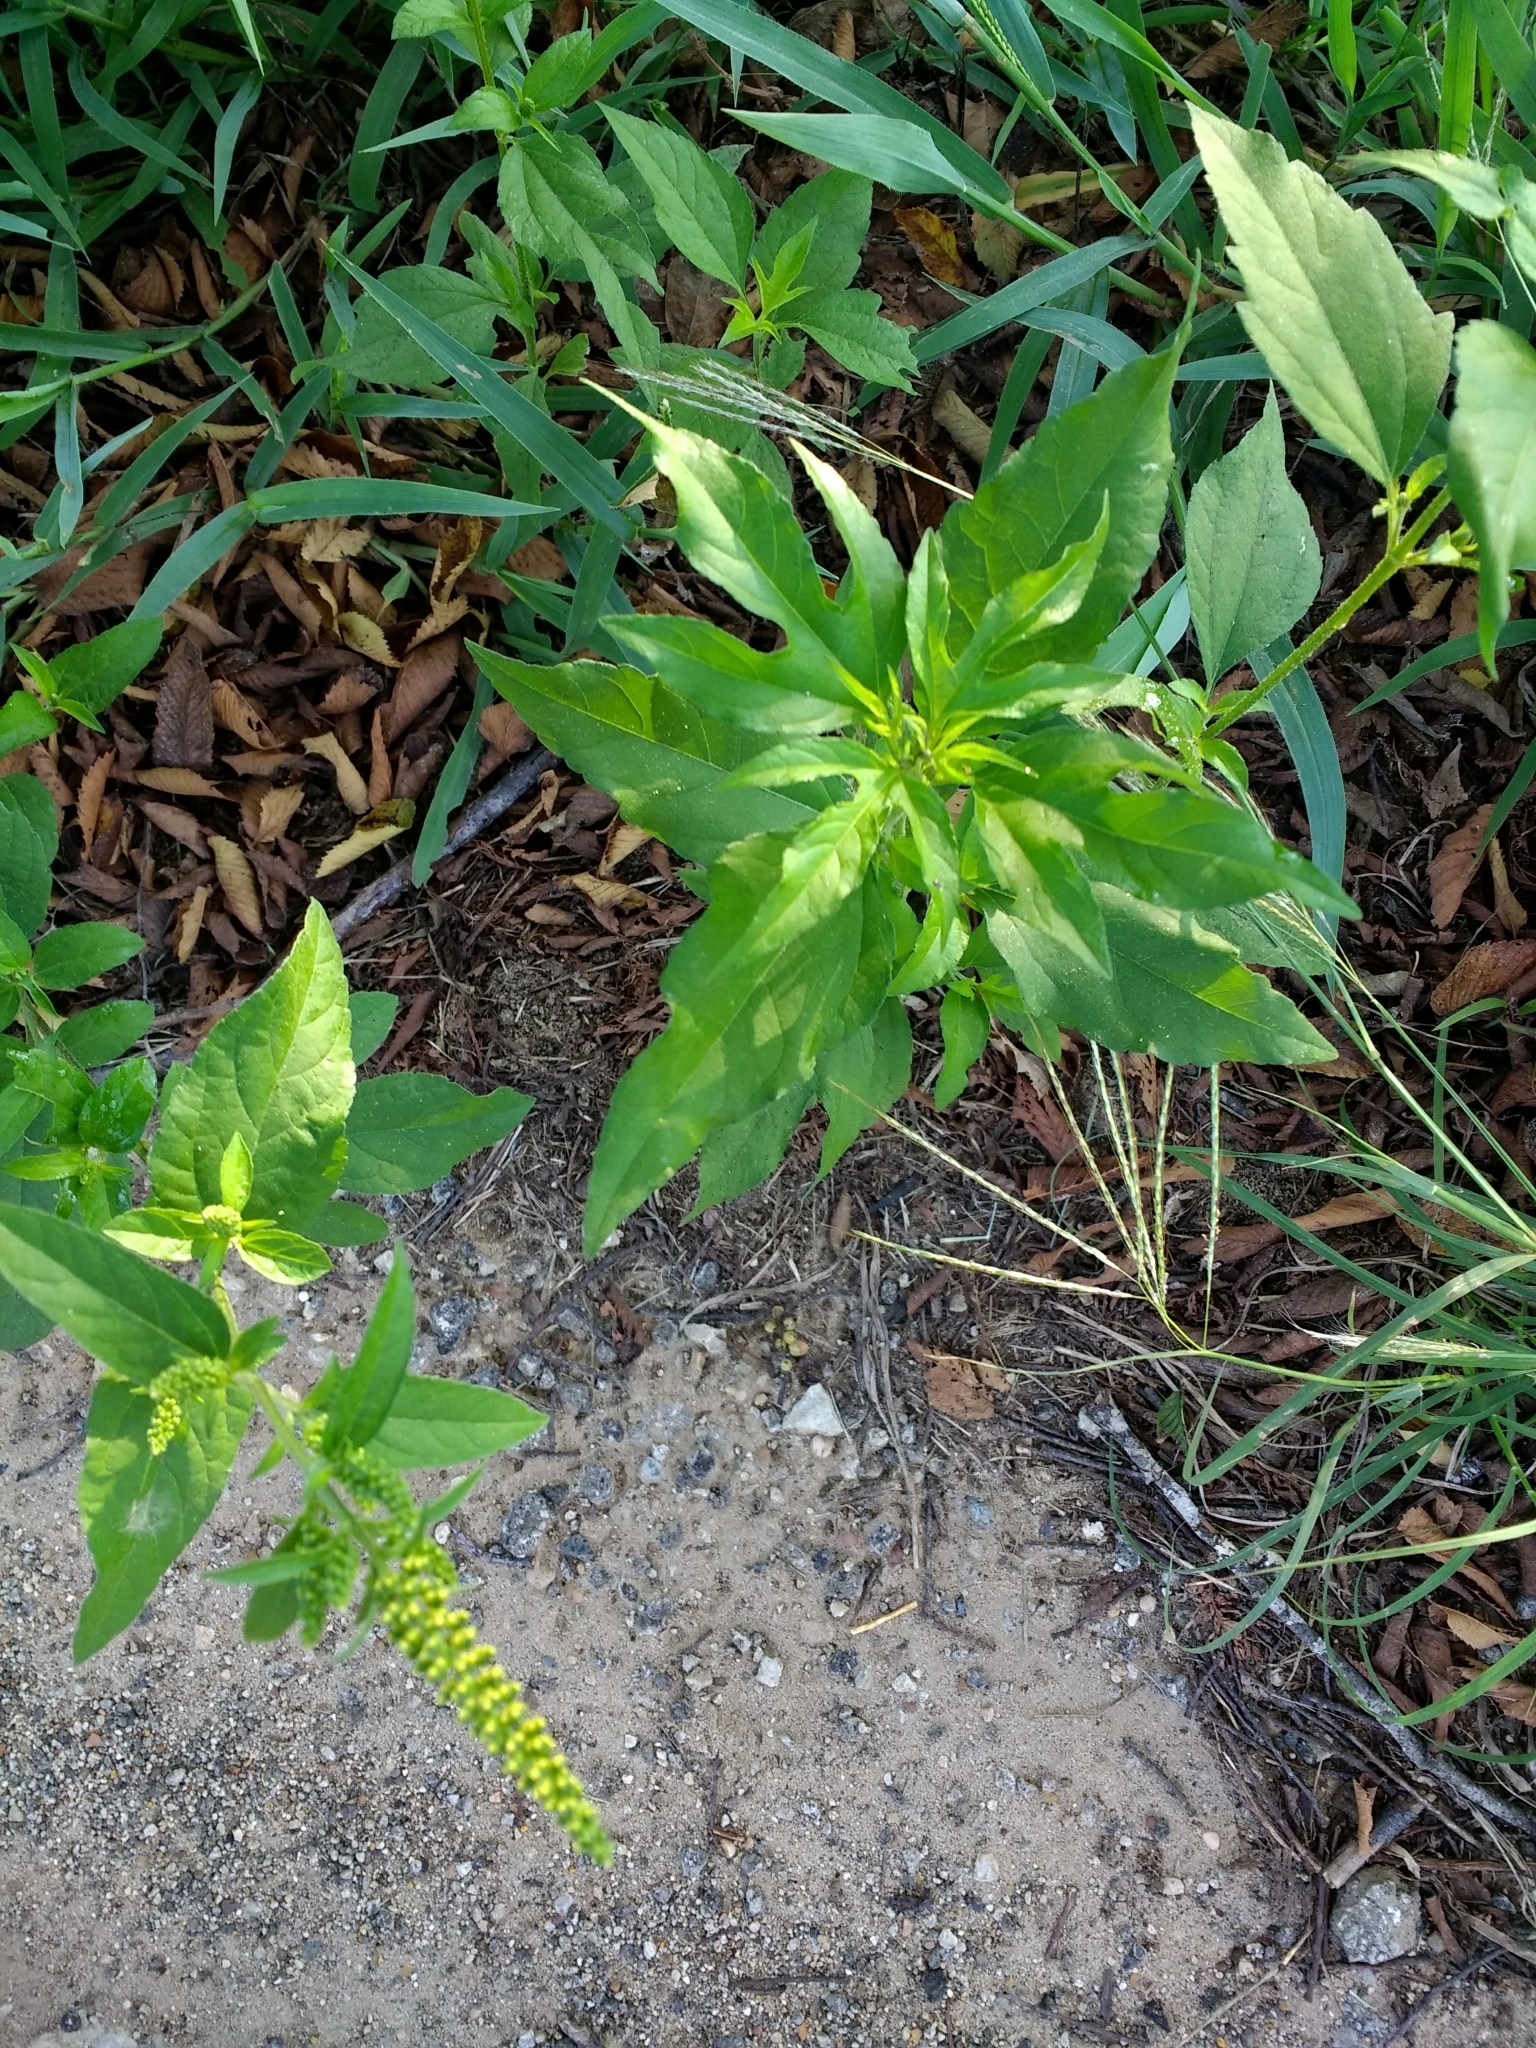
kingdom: Plantae
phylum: Tracheophyta
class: Magnoliopsida
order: Asterales
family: Asteraceae
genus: Ambrosia
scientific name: Ambrosia trifida
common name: Giant ragweed
